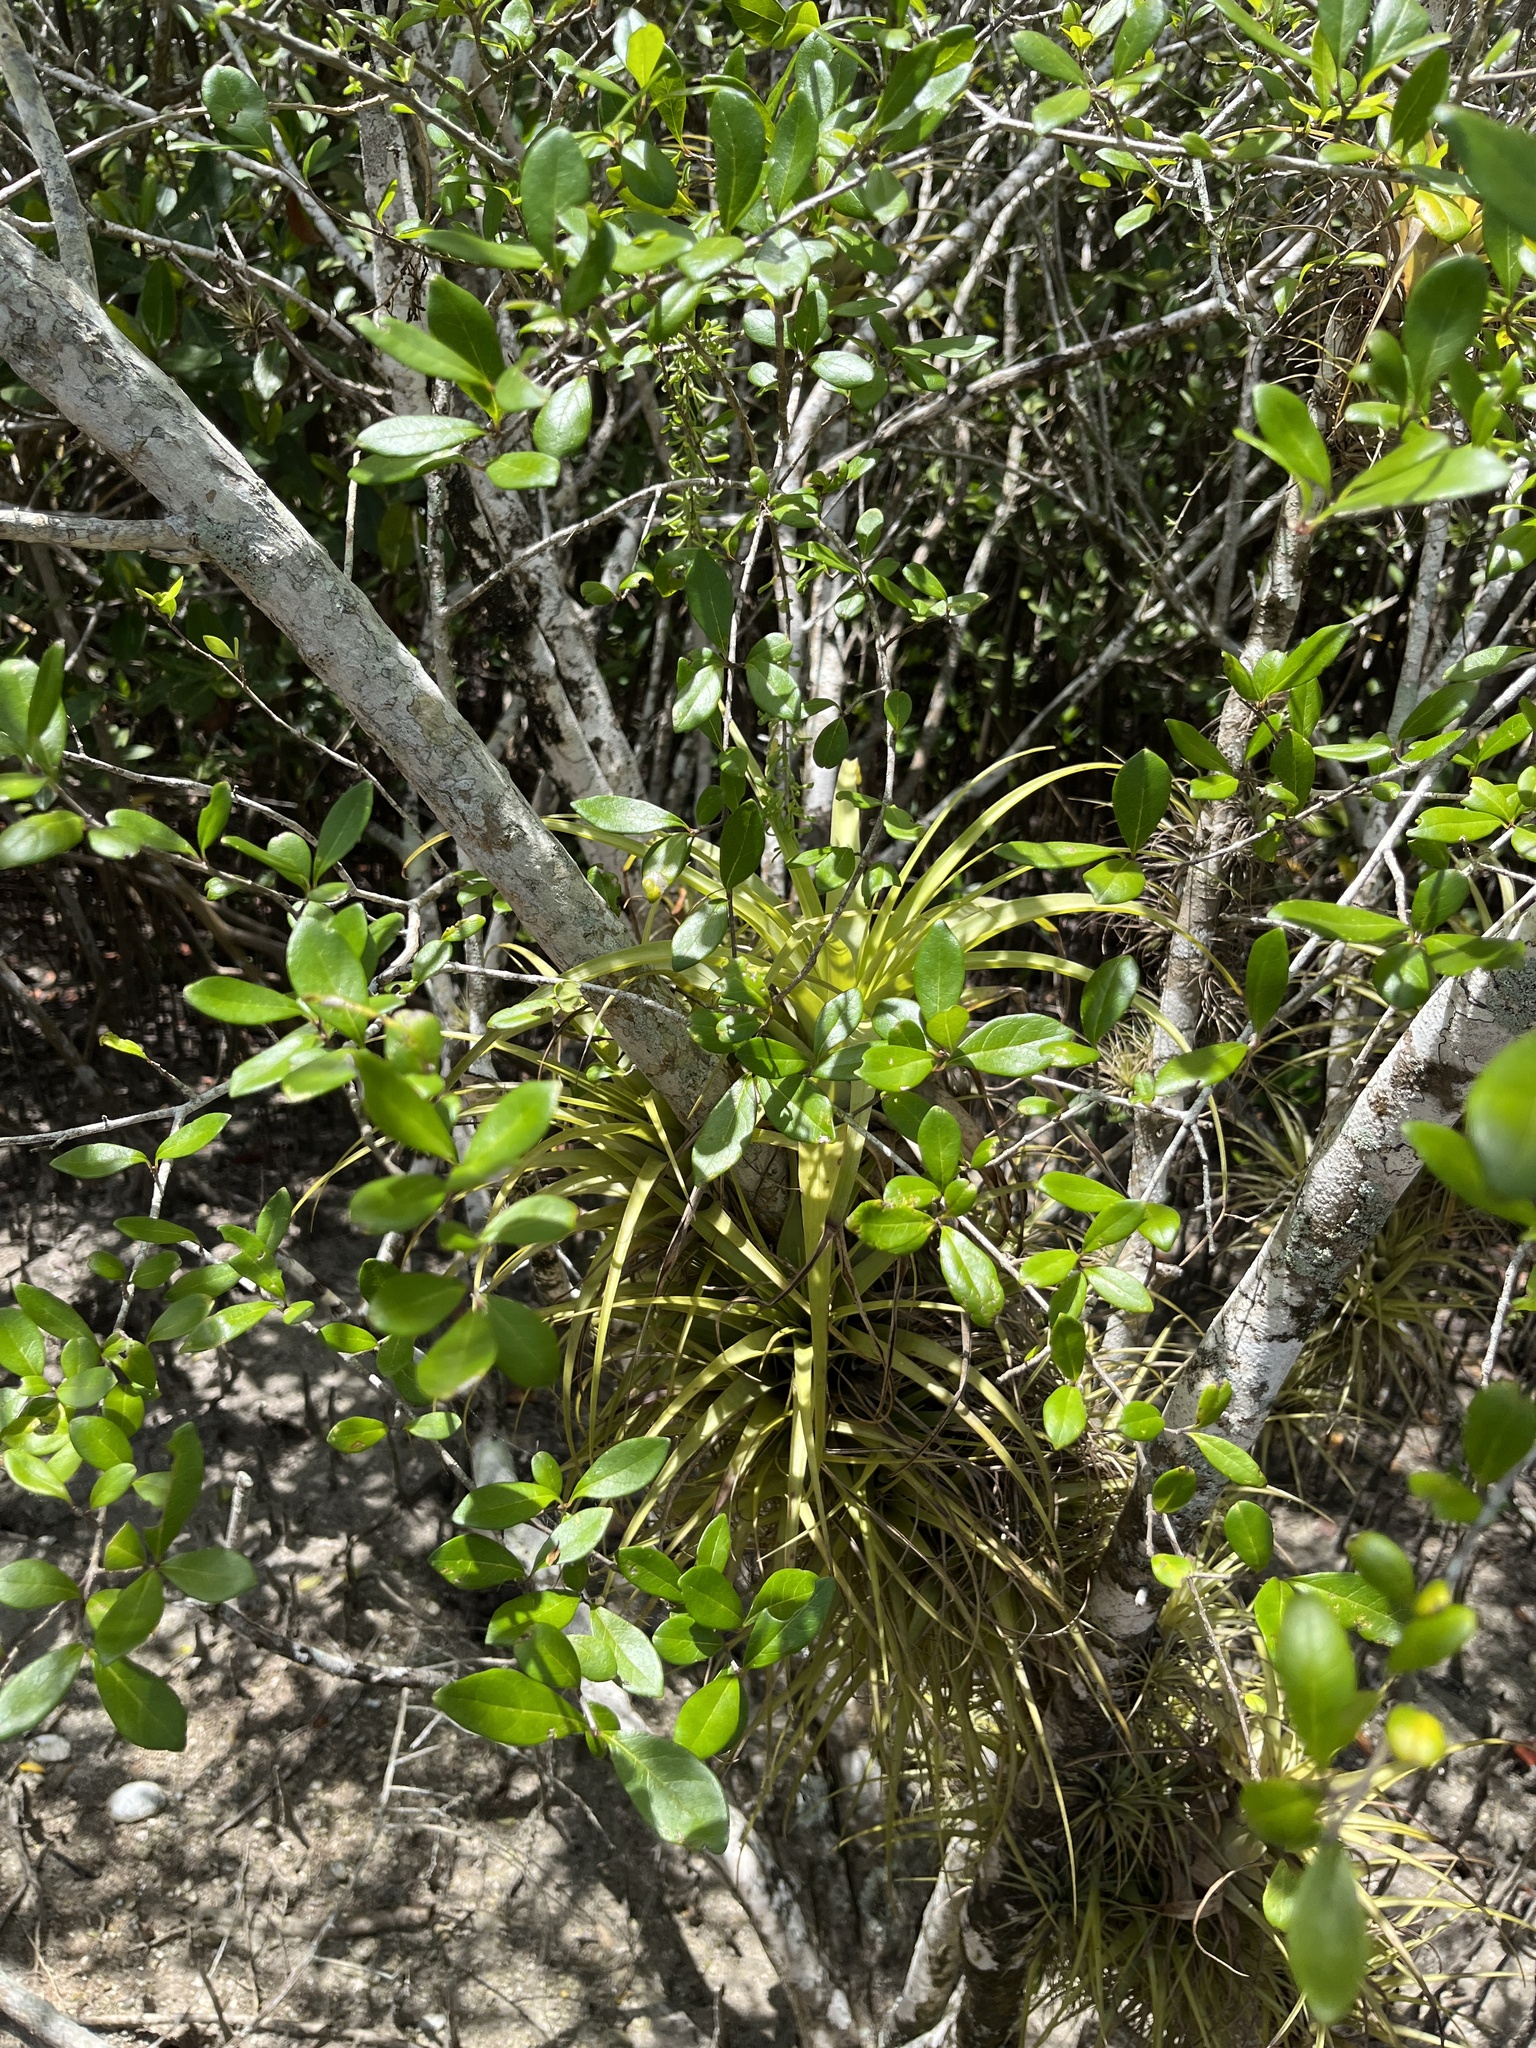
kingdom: Plantae
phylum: Tracheophyta
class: Liliopsida
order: Poales
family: Bromeliaceae
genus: Tillandsia
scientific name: Tillandsia utriculata
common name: Wild pine
